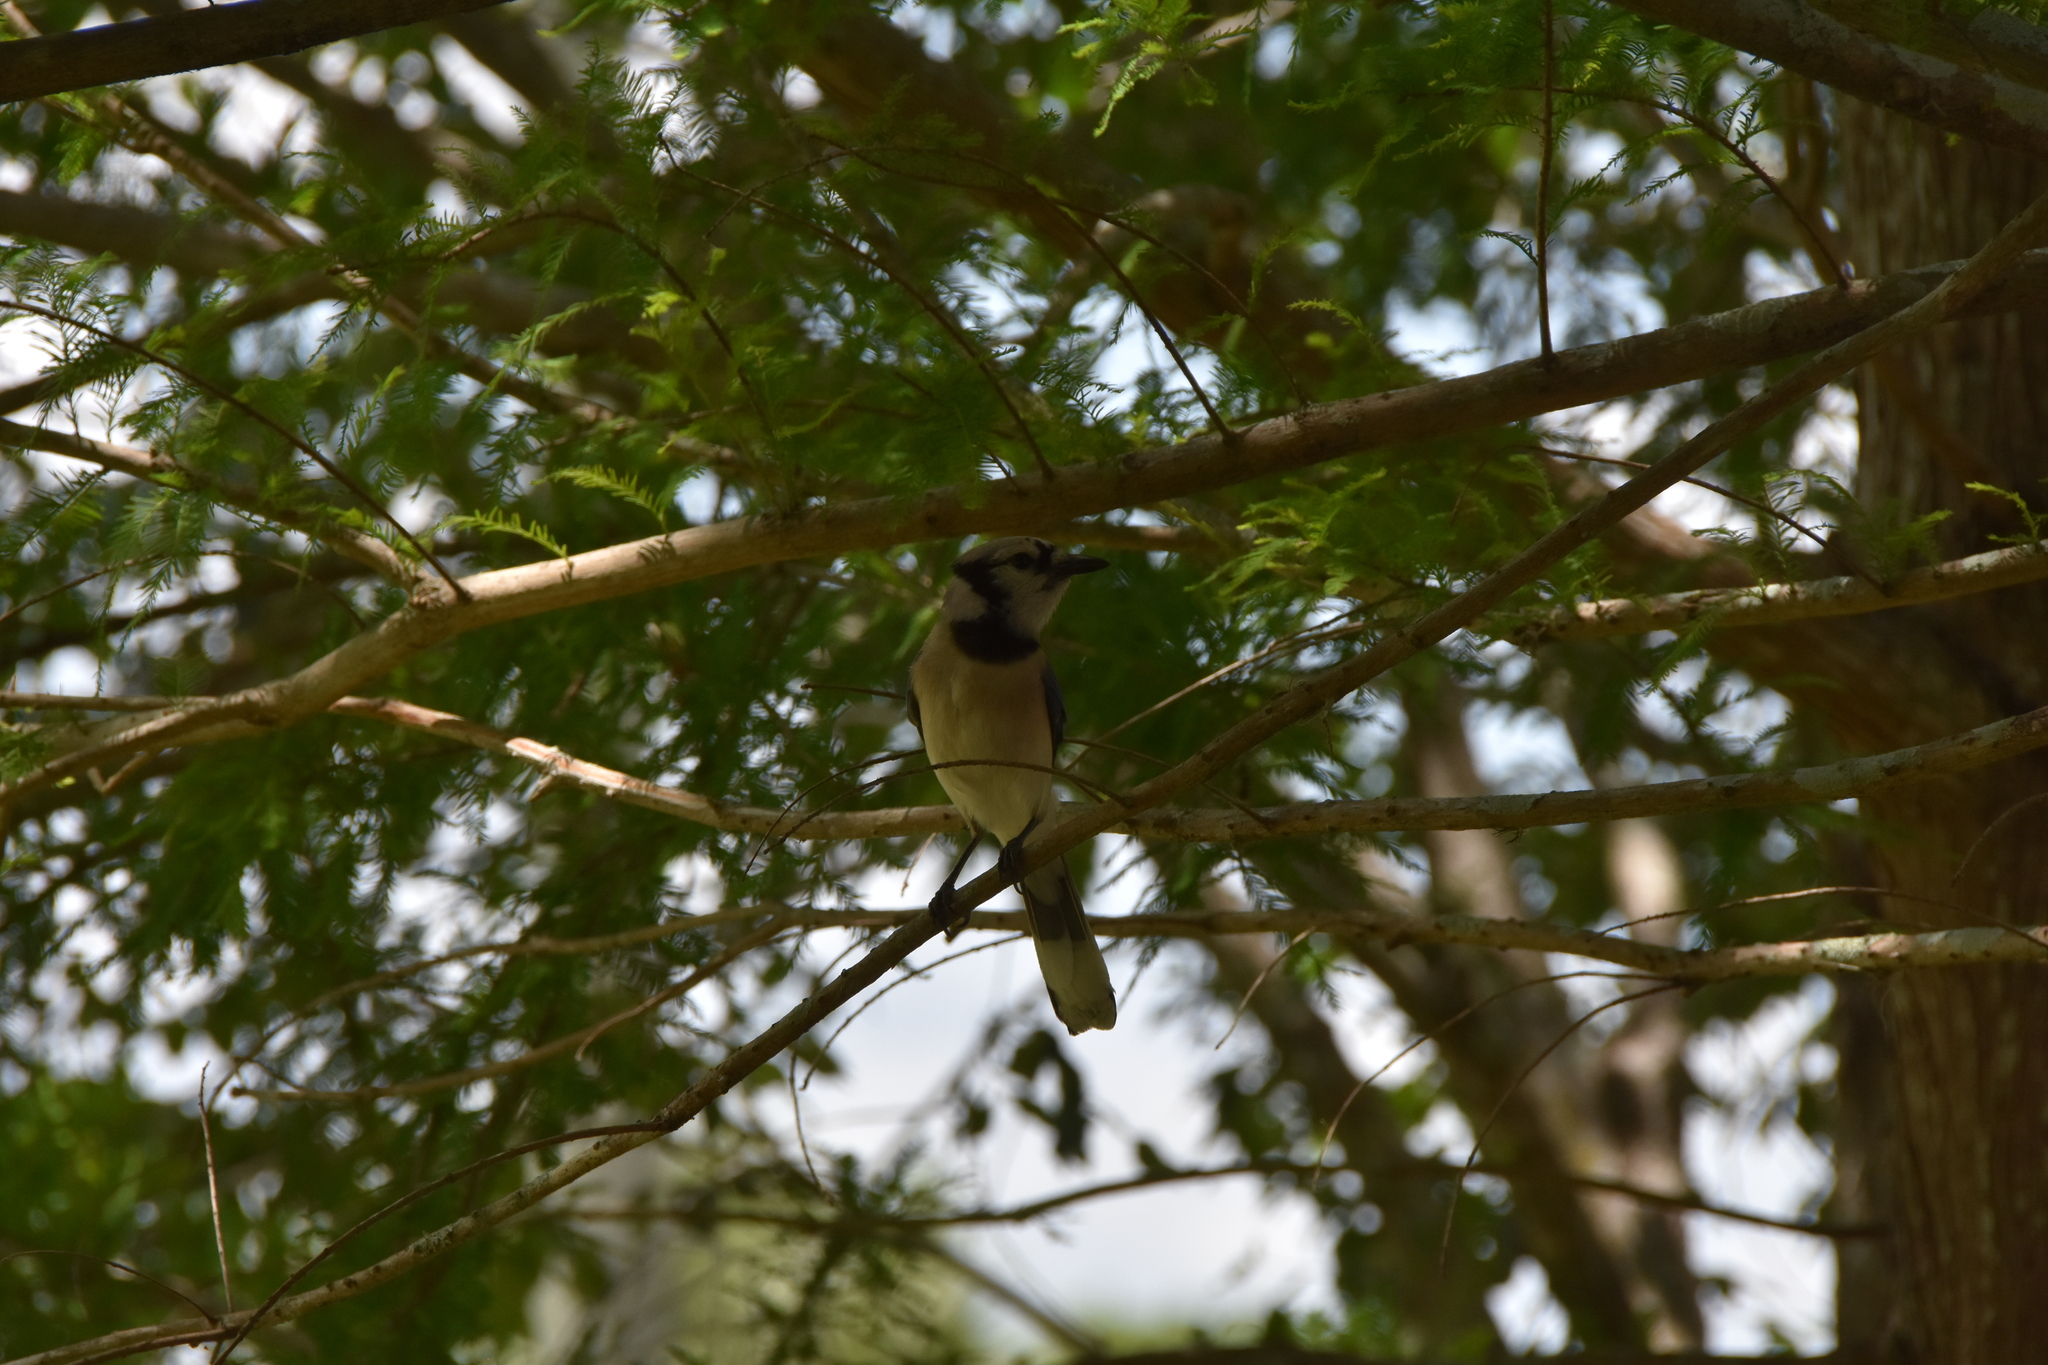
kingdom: Animalia
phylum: Chordata
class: Aves
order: Passeriformes
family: Corvidae
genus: Cyanocitta
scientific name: Cyanocitta cristata
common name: Blue jay
